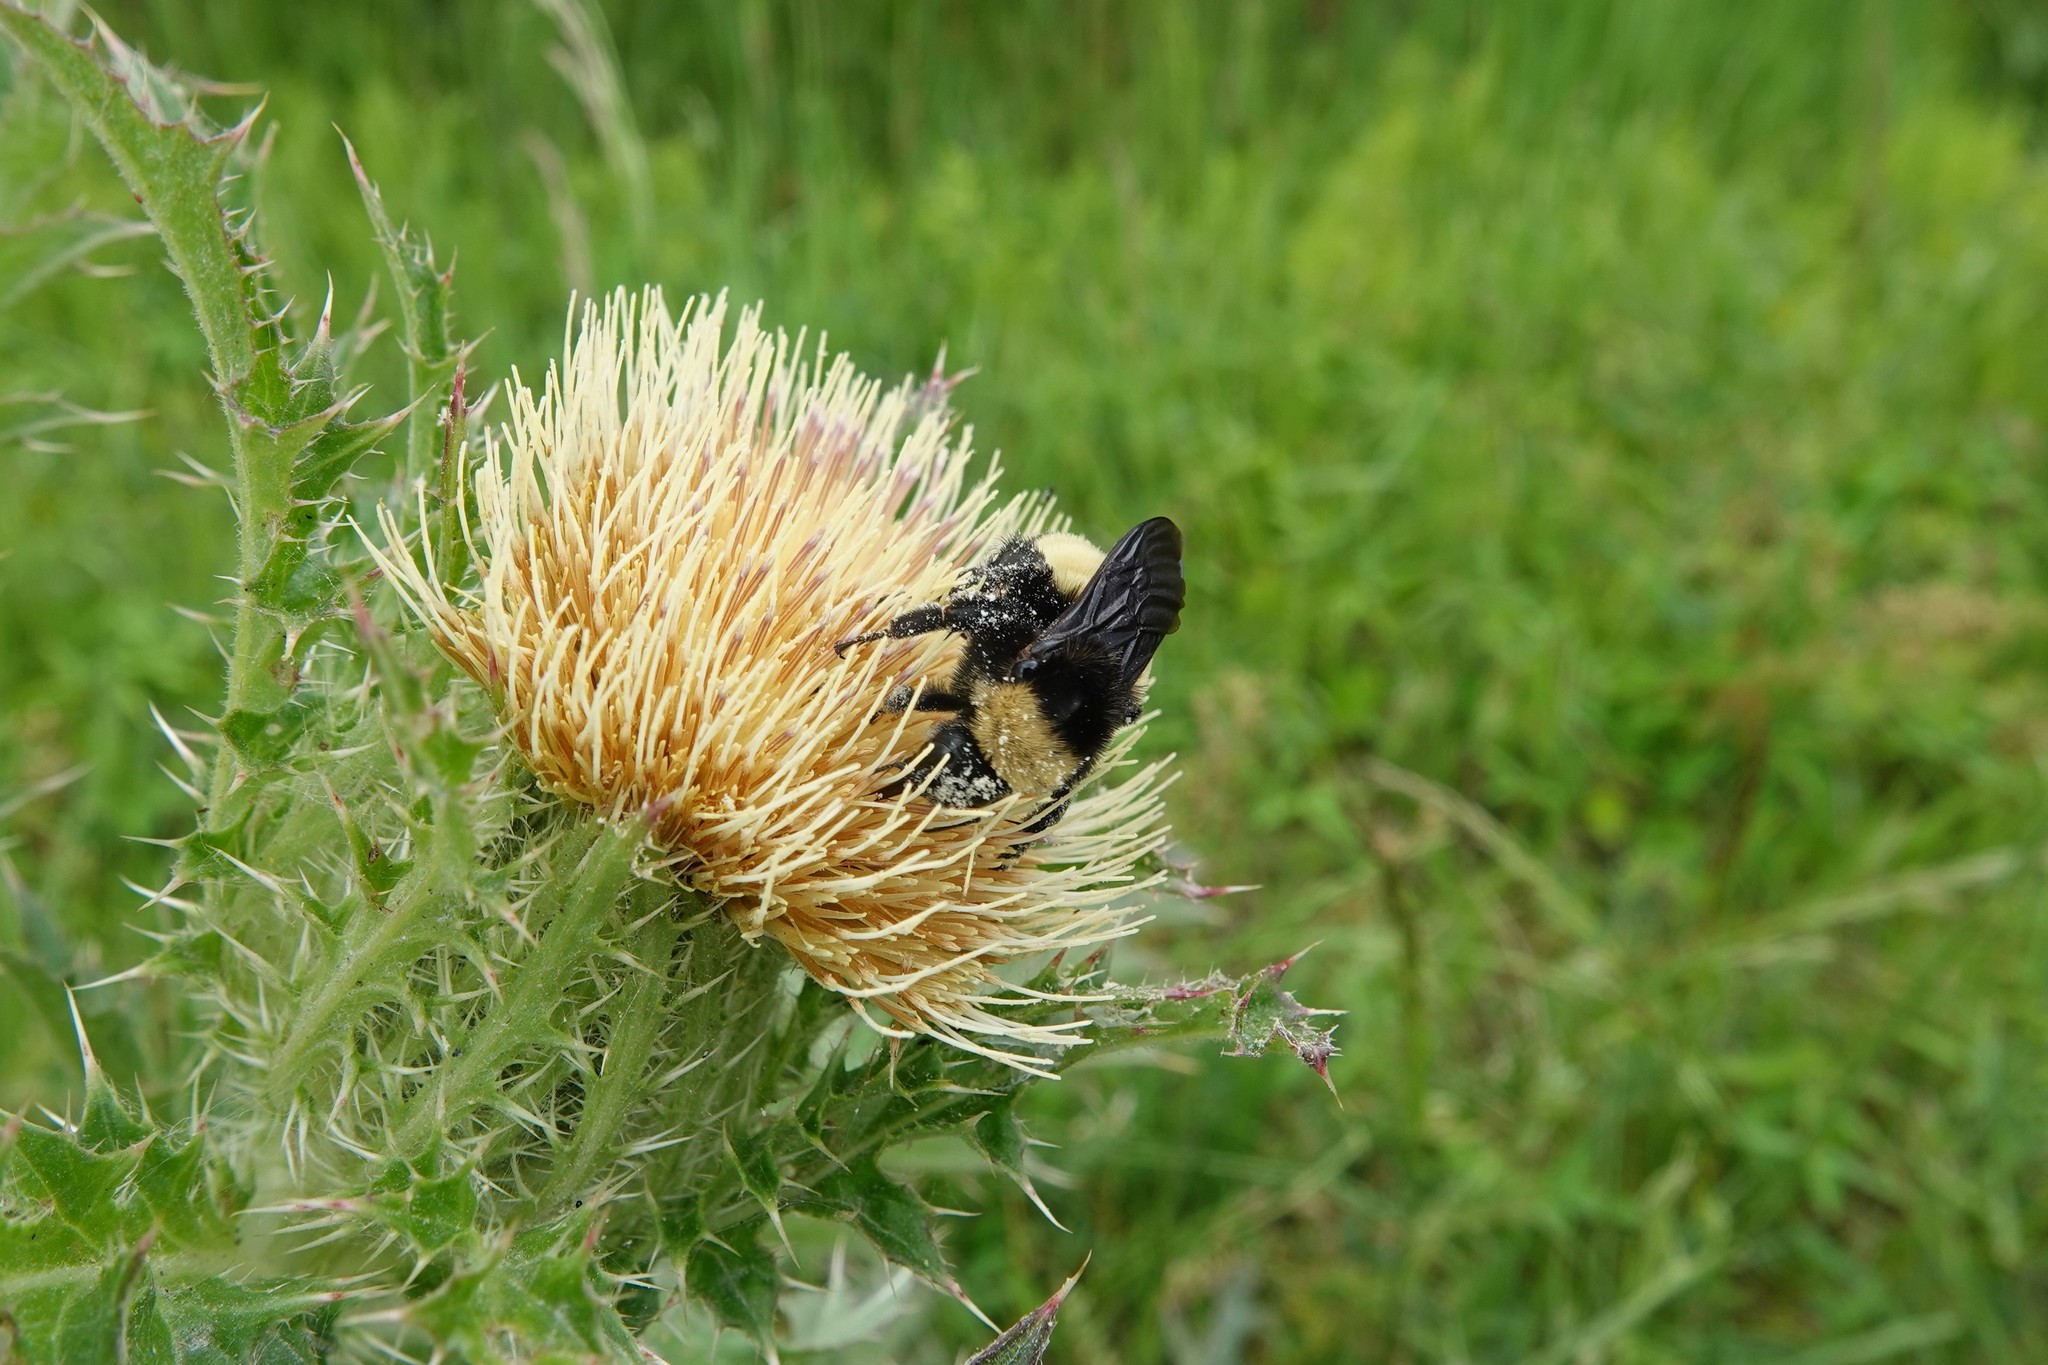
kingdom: Animalia
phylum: Arthropoda
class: Insecta
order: Hymenoptera
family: Apidae
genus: Bombus
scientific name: Bombus pensylvanicus
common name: Bumble bee
